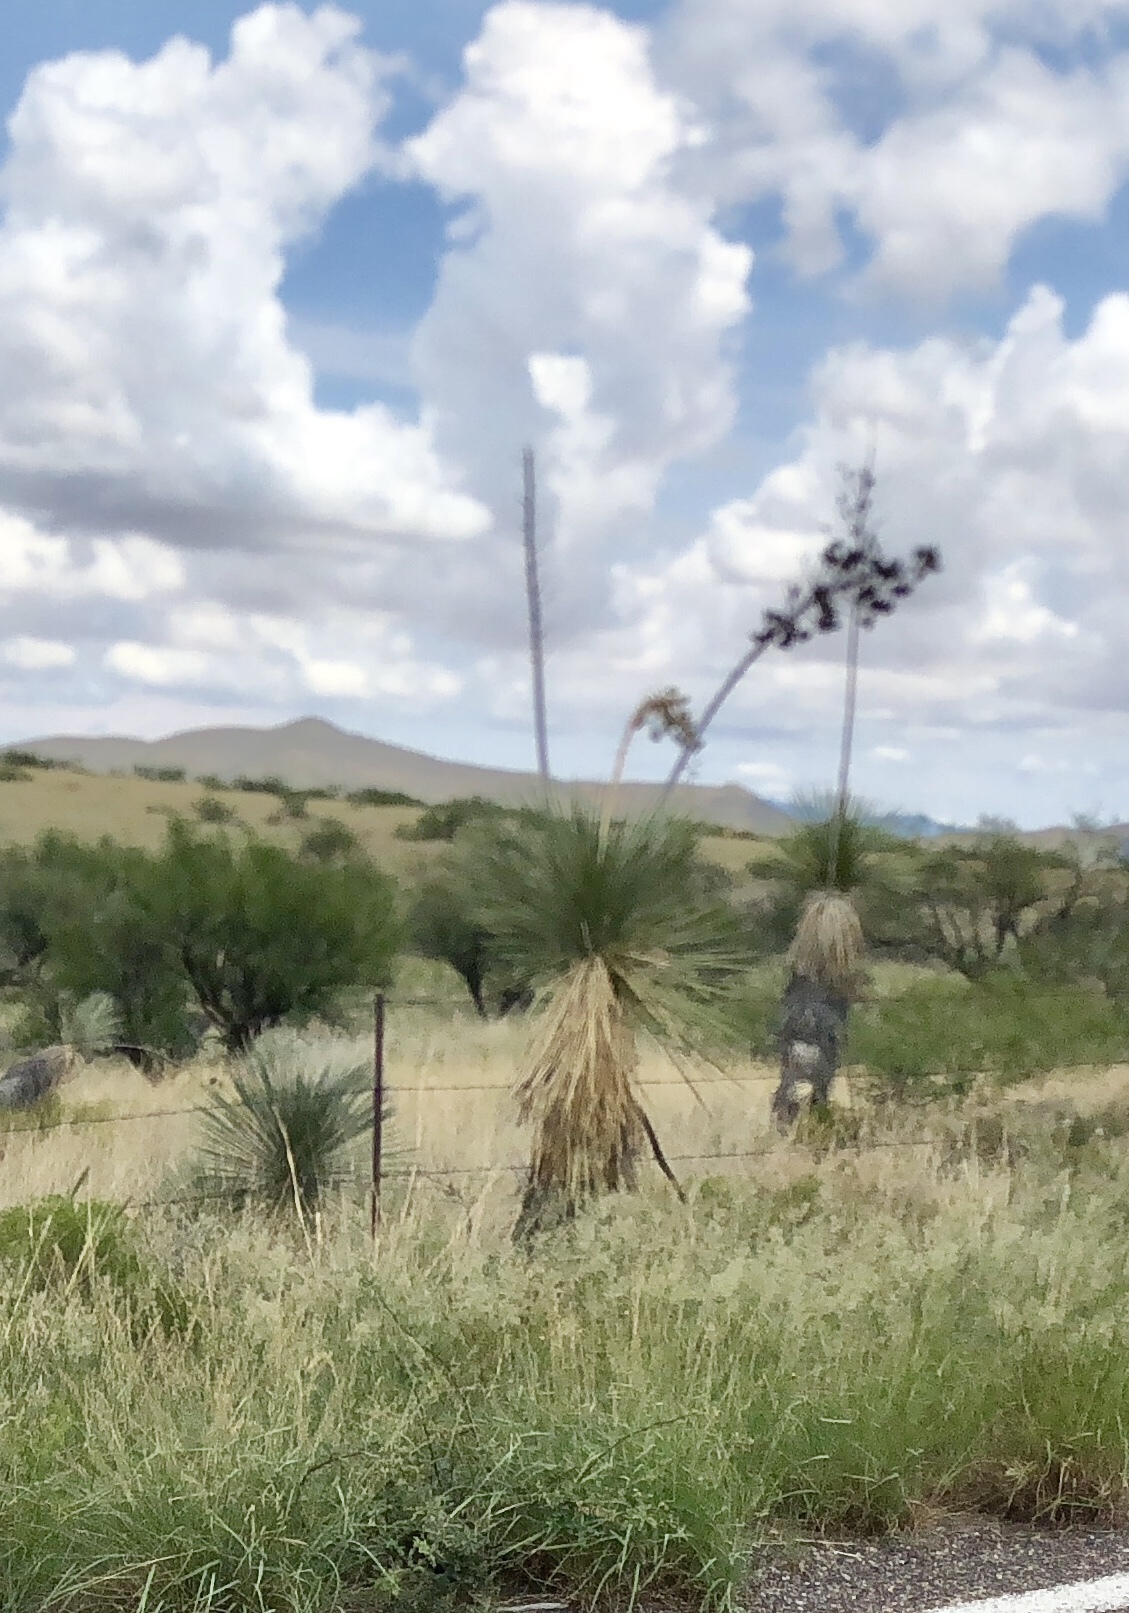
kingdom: Plantae
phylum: Tracheophyta
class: Liliopsida
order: Asparagales
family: Asparagaceae
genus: Yucca
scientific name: Yucca elata
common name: Palmella
